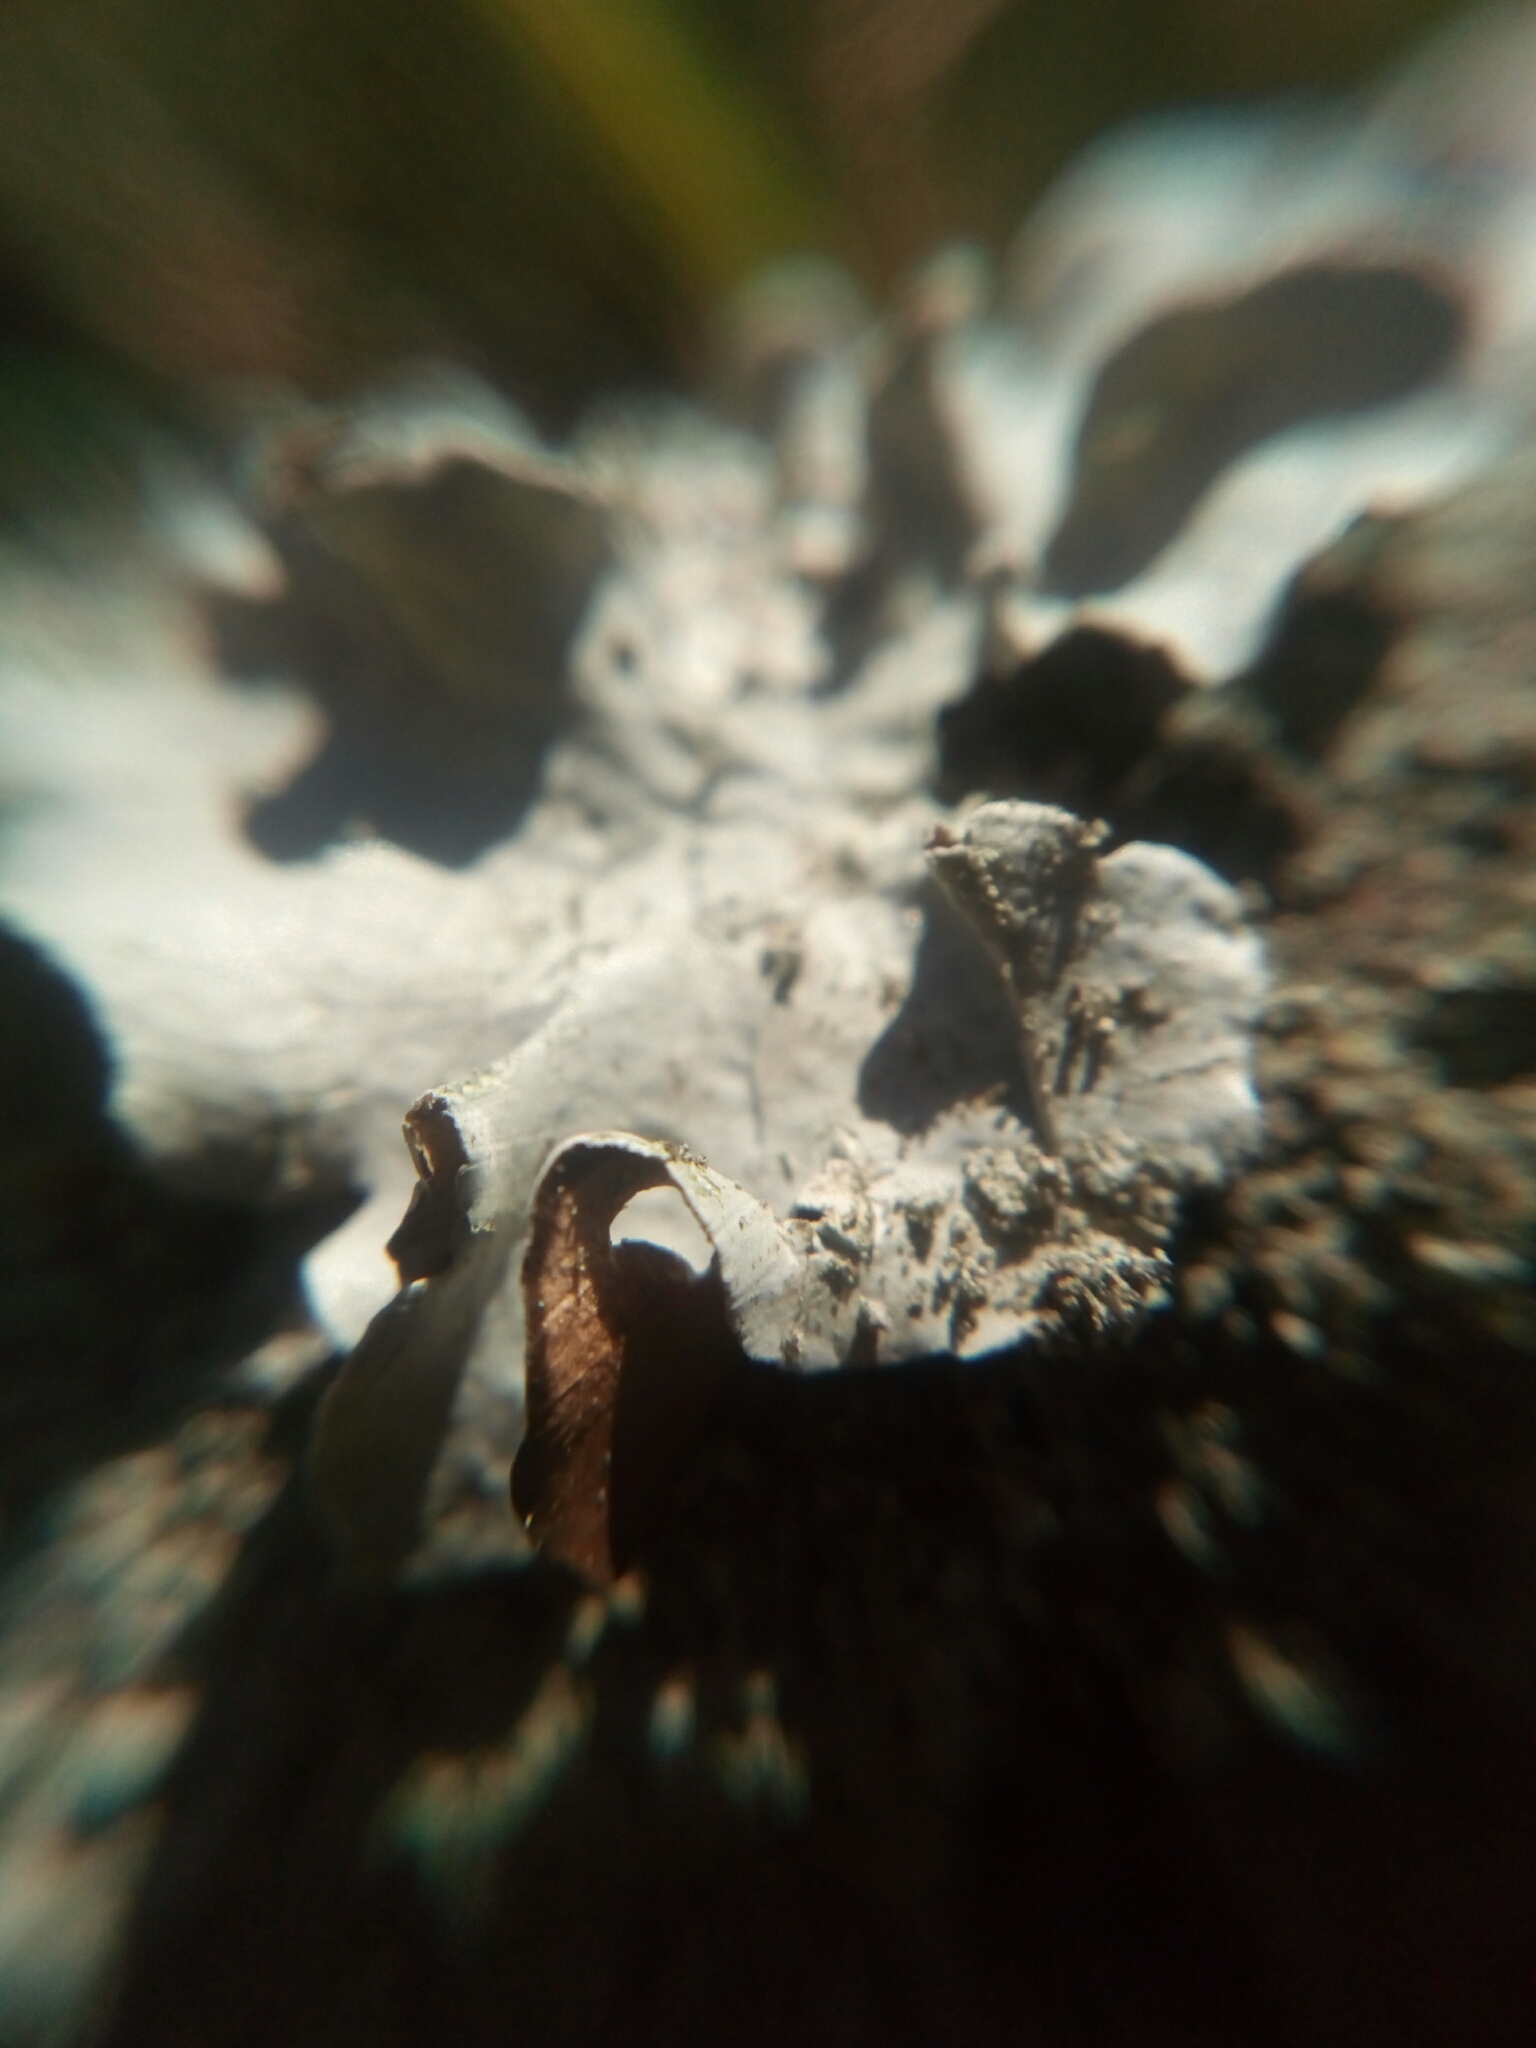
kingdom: Fungi
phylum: Ascomycota
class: Lecanoromycetes
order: Lecanorales
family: Parmeliaceae
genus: Parmotrema
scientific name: Parmotrema austrosinense
